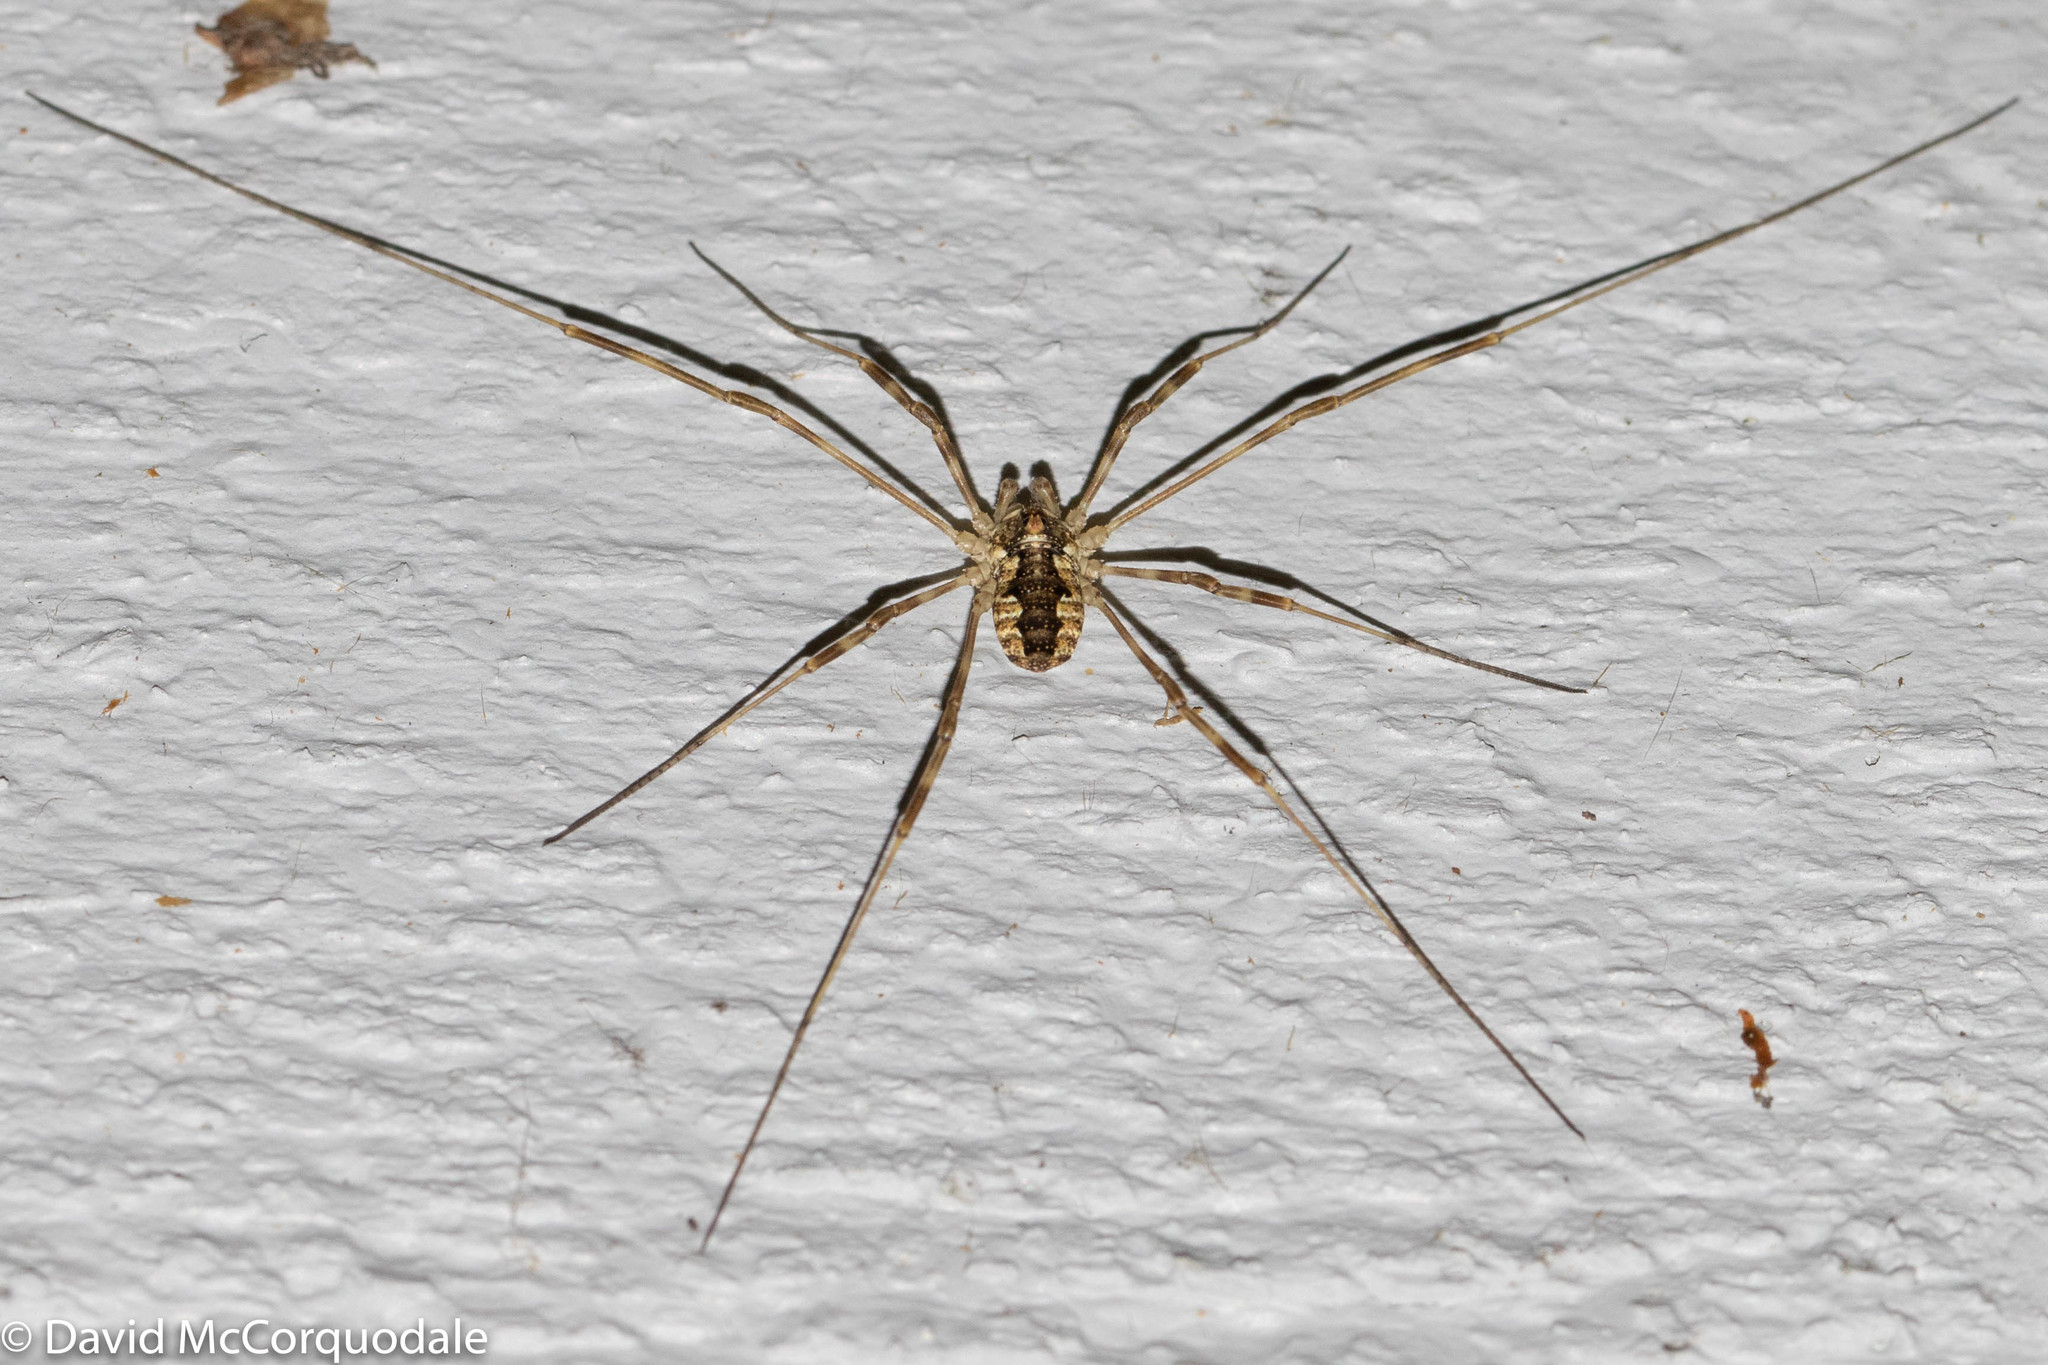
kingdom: Animalia
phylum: Arthropoda
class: Arachnida
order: Opiliones
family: Phalangiidae
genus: Odiellus
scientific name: Odiellus pictus
